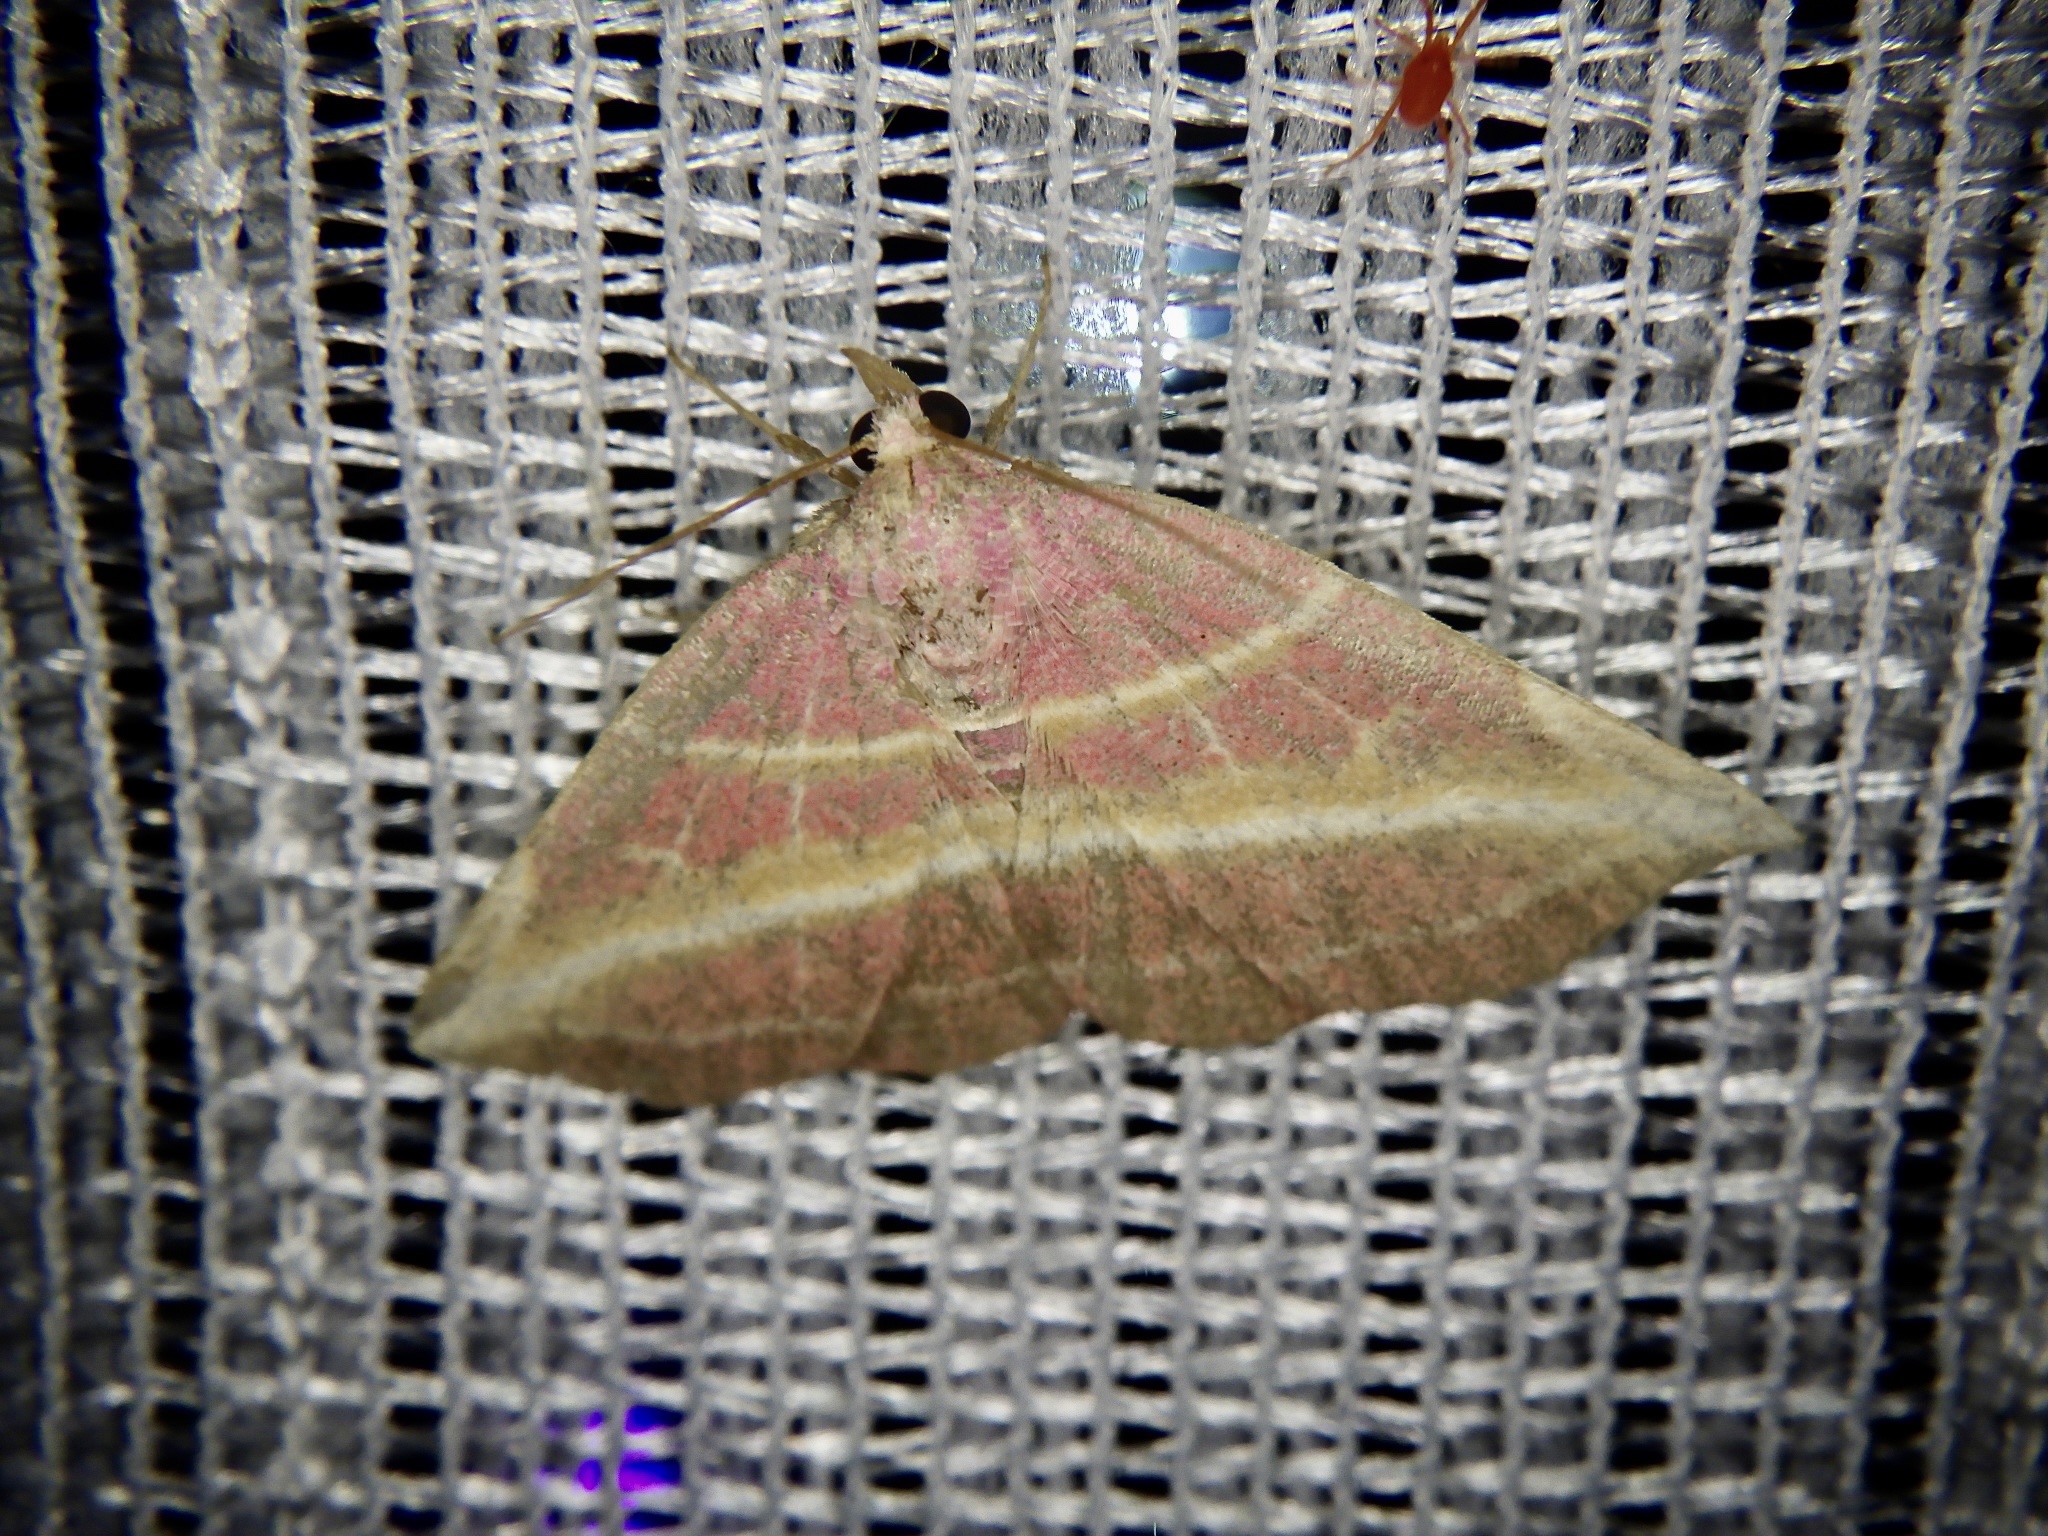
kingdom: Animalia
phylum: Arthropoda
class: Insecta
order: Lepidoptera
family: Noctuidae
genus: Naganoella
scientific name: Naganoella
